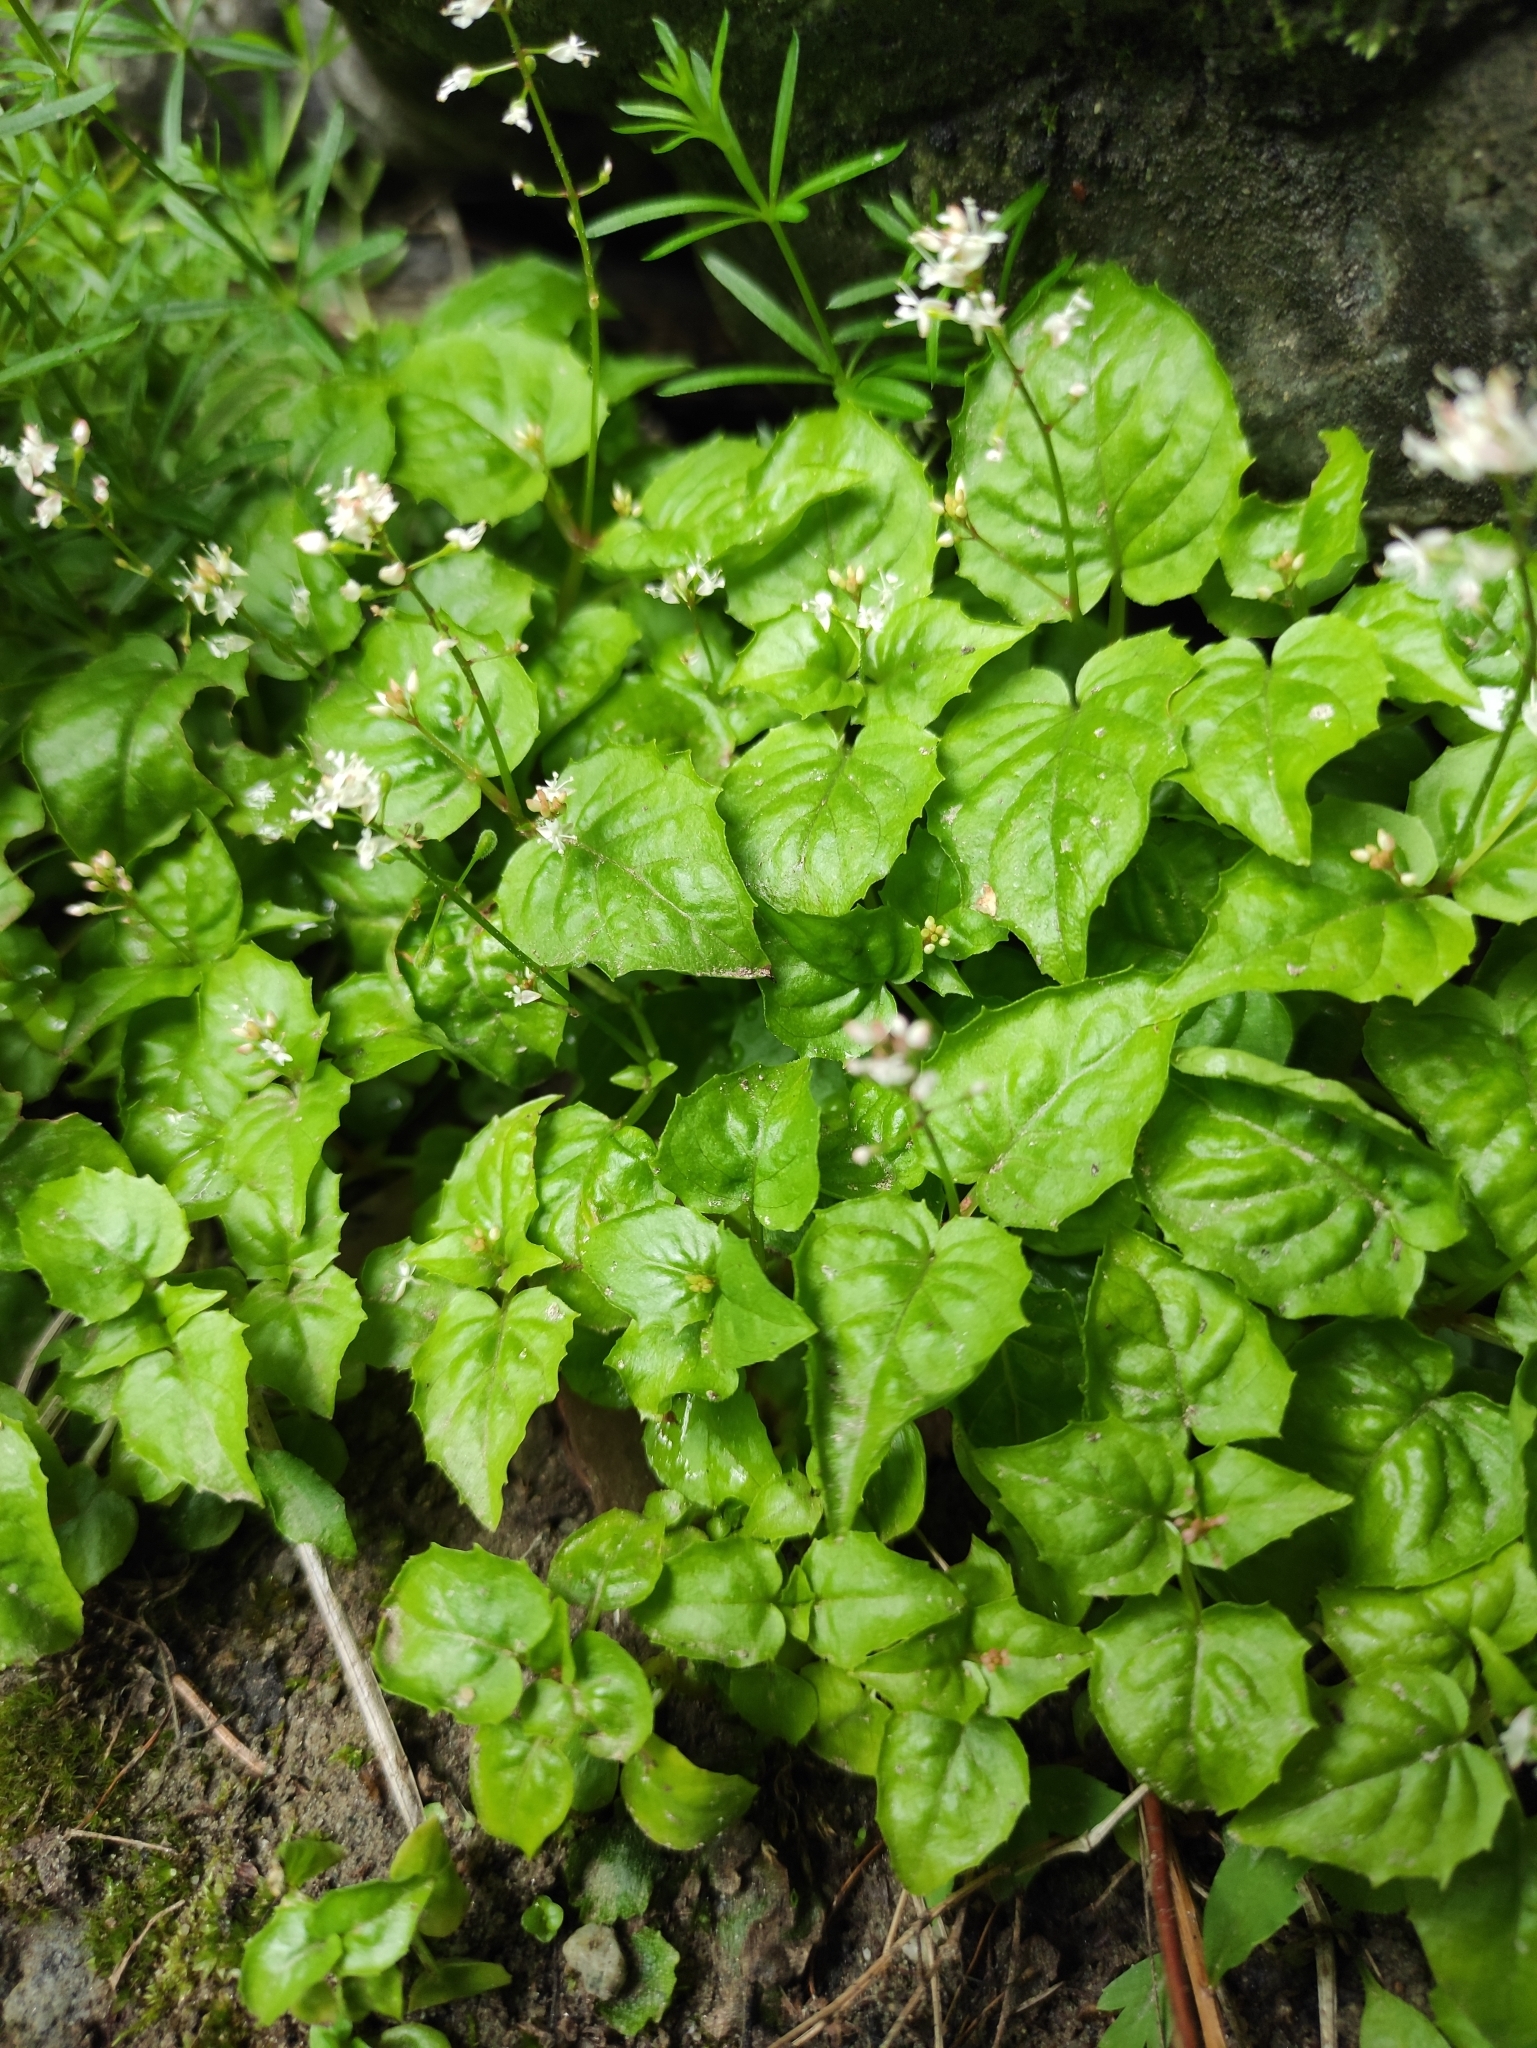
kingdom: Plantae
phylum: Tracheophyta
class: Magnoliopsida
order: Myrtales
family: Onagraceae
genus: Circaea
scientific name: Circaea alpina
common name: Alpine enchanter's-nightshade
